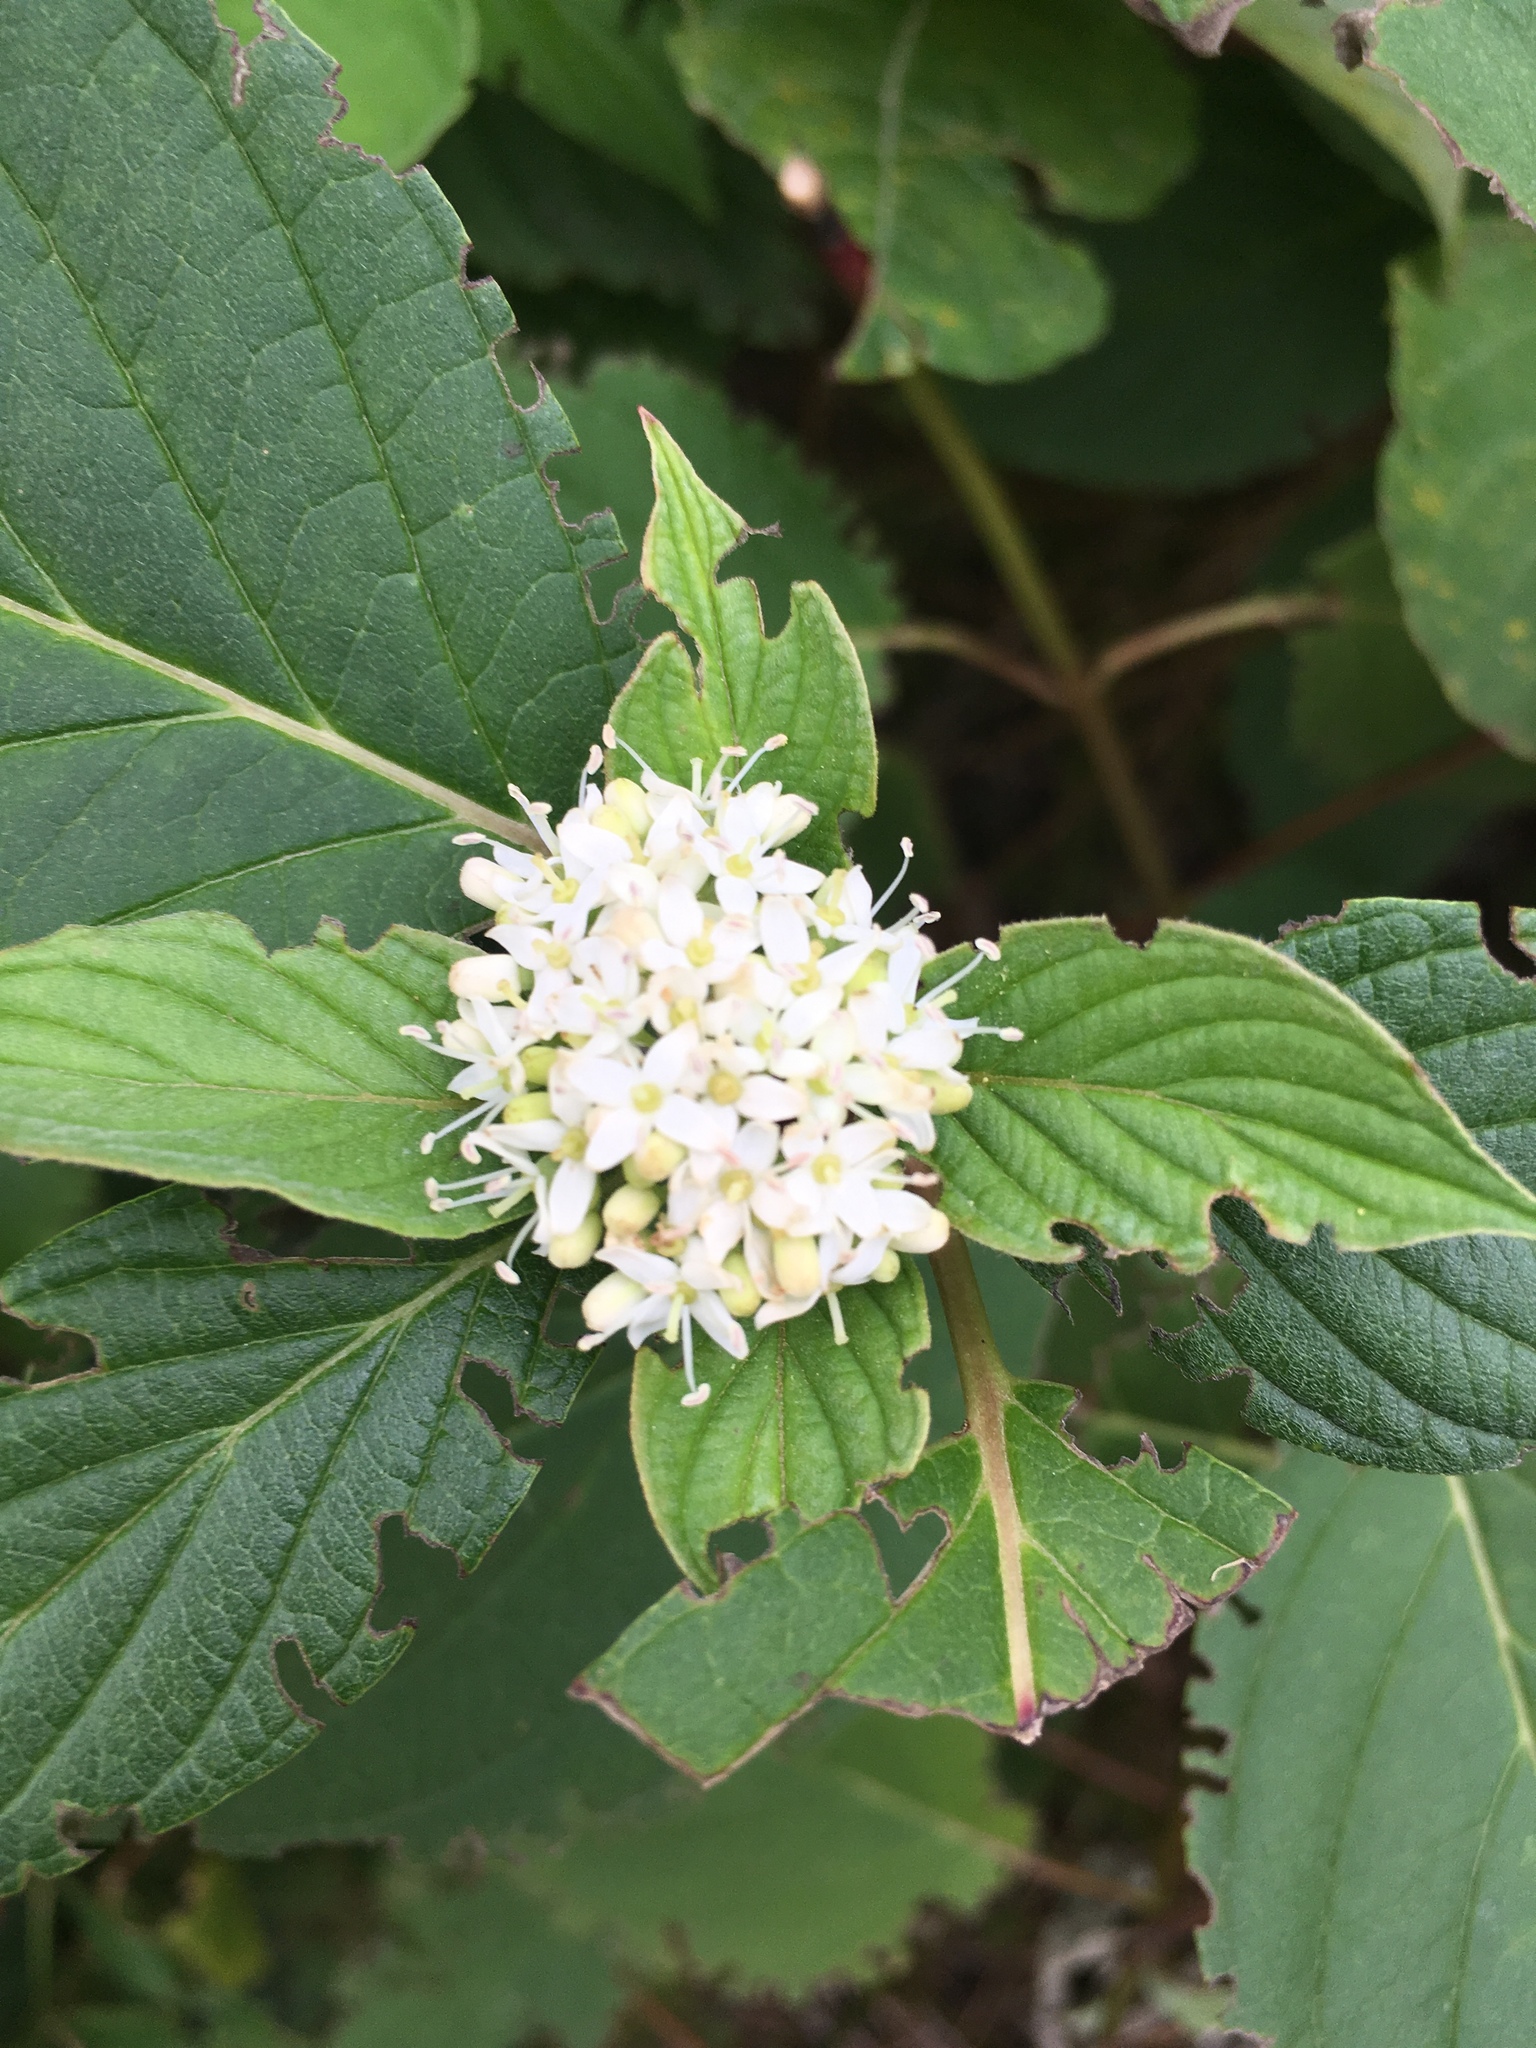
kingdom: Plantae
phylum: Tracheophyta
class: Magnoliopsida
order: Cornales
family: Cornaceae
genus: Cornus
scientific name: Cornus sericea
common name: Red-osier dogwood
